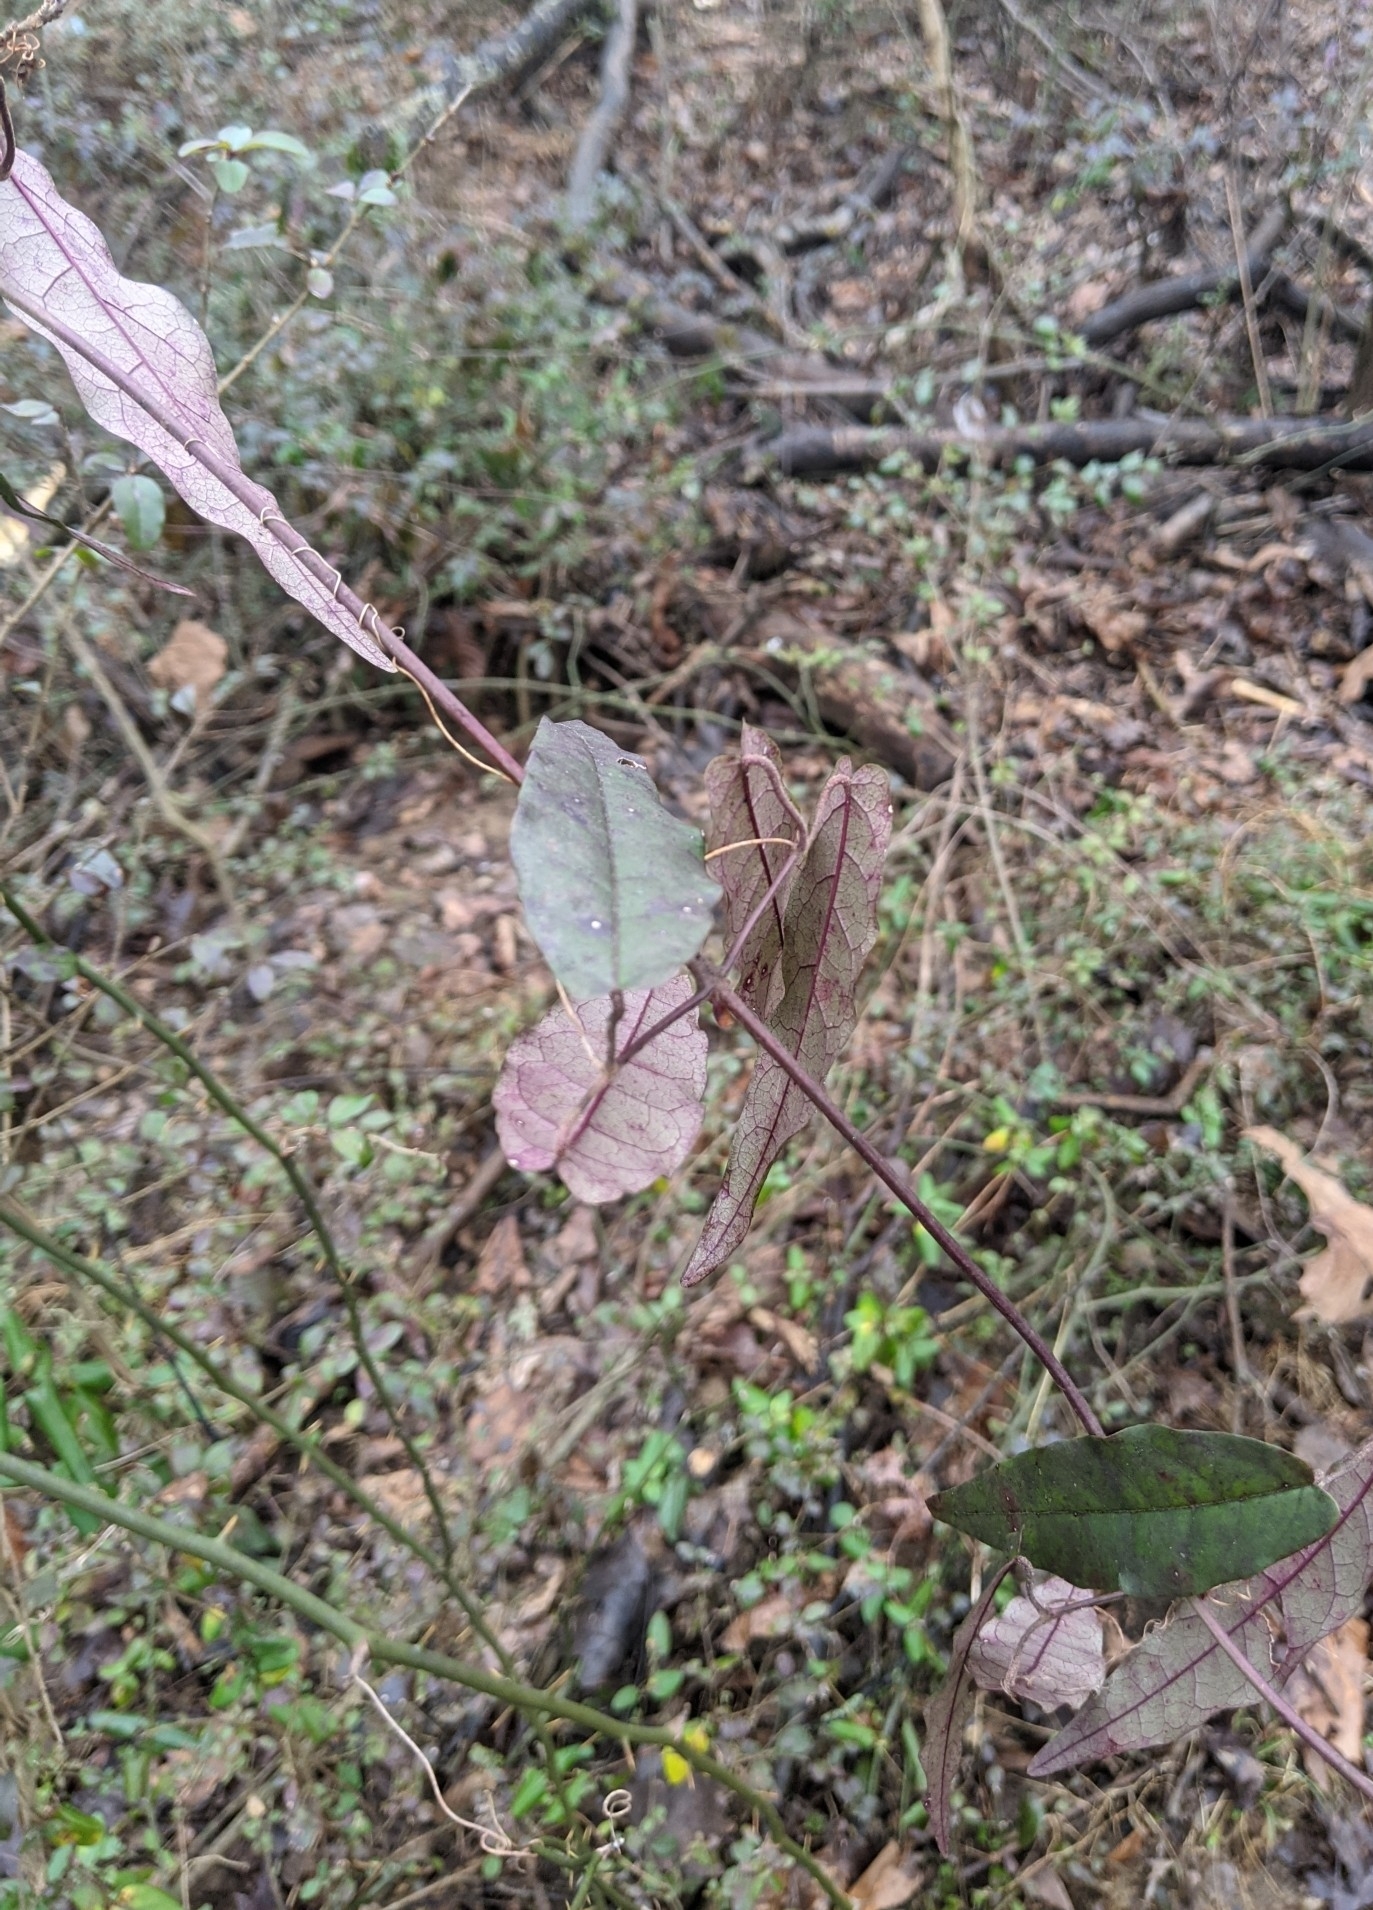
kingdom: Plantae
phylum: Tracheophyta
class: Magnoliopsida
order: Lamiales
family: Bignoniaceae
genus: Bignonia
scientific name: Bignonia capreolata
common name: Crossvine
